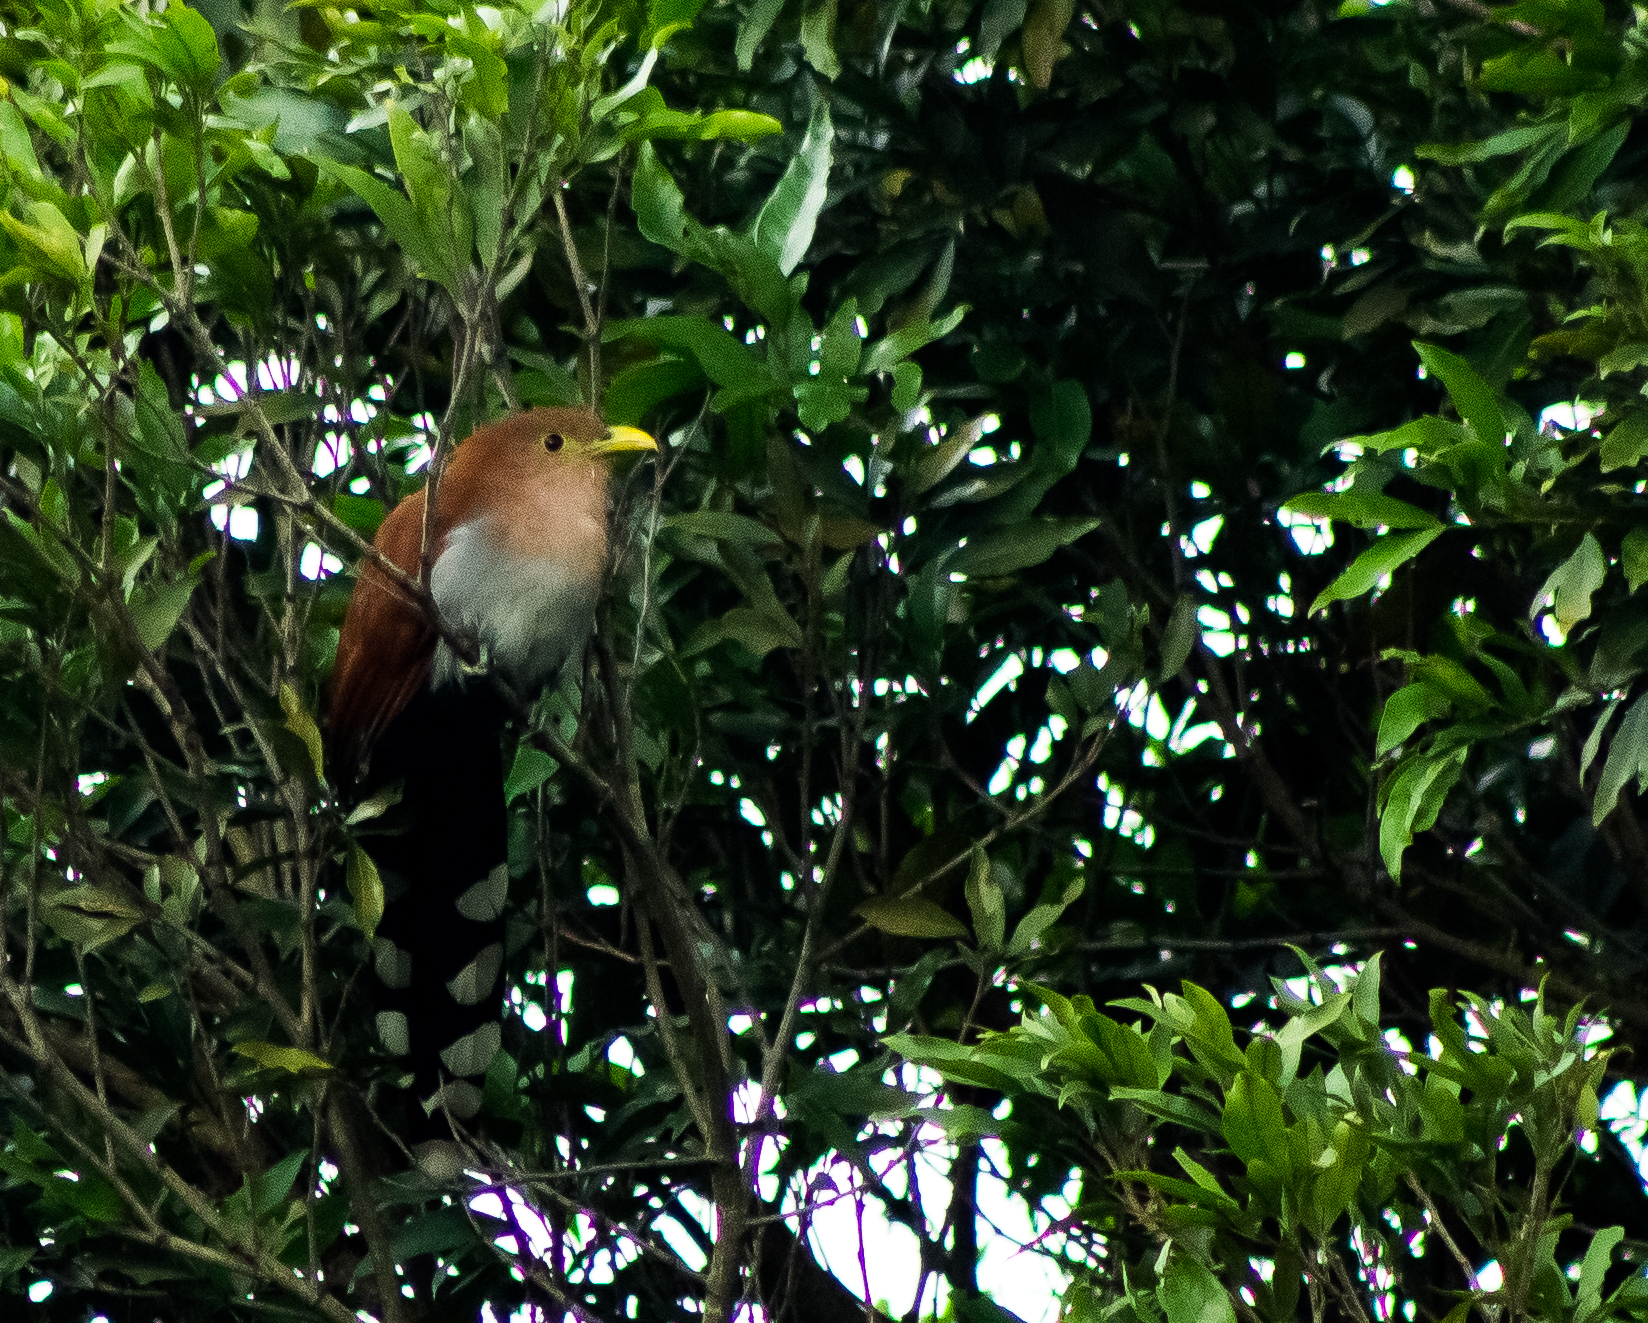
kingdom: Animalia
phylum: Chordata
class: Aves
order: Cuculiformes
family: Cuculidae
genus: Piaya
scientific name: Piaya cayana
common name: Squirrel cuckoo
